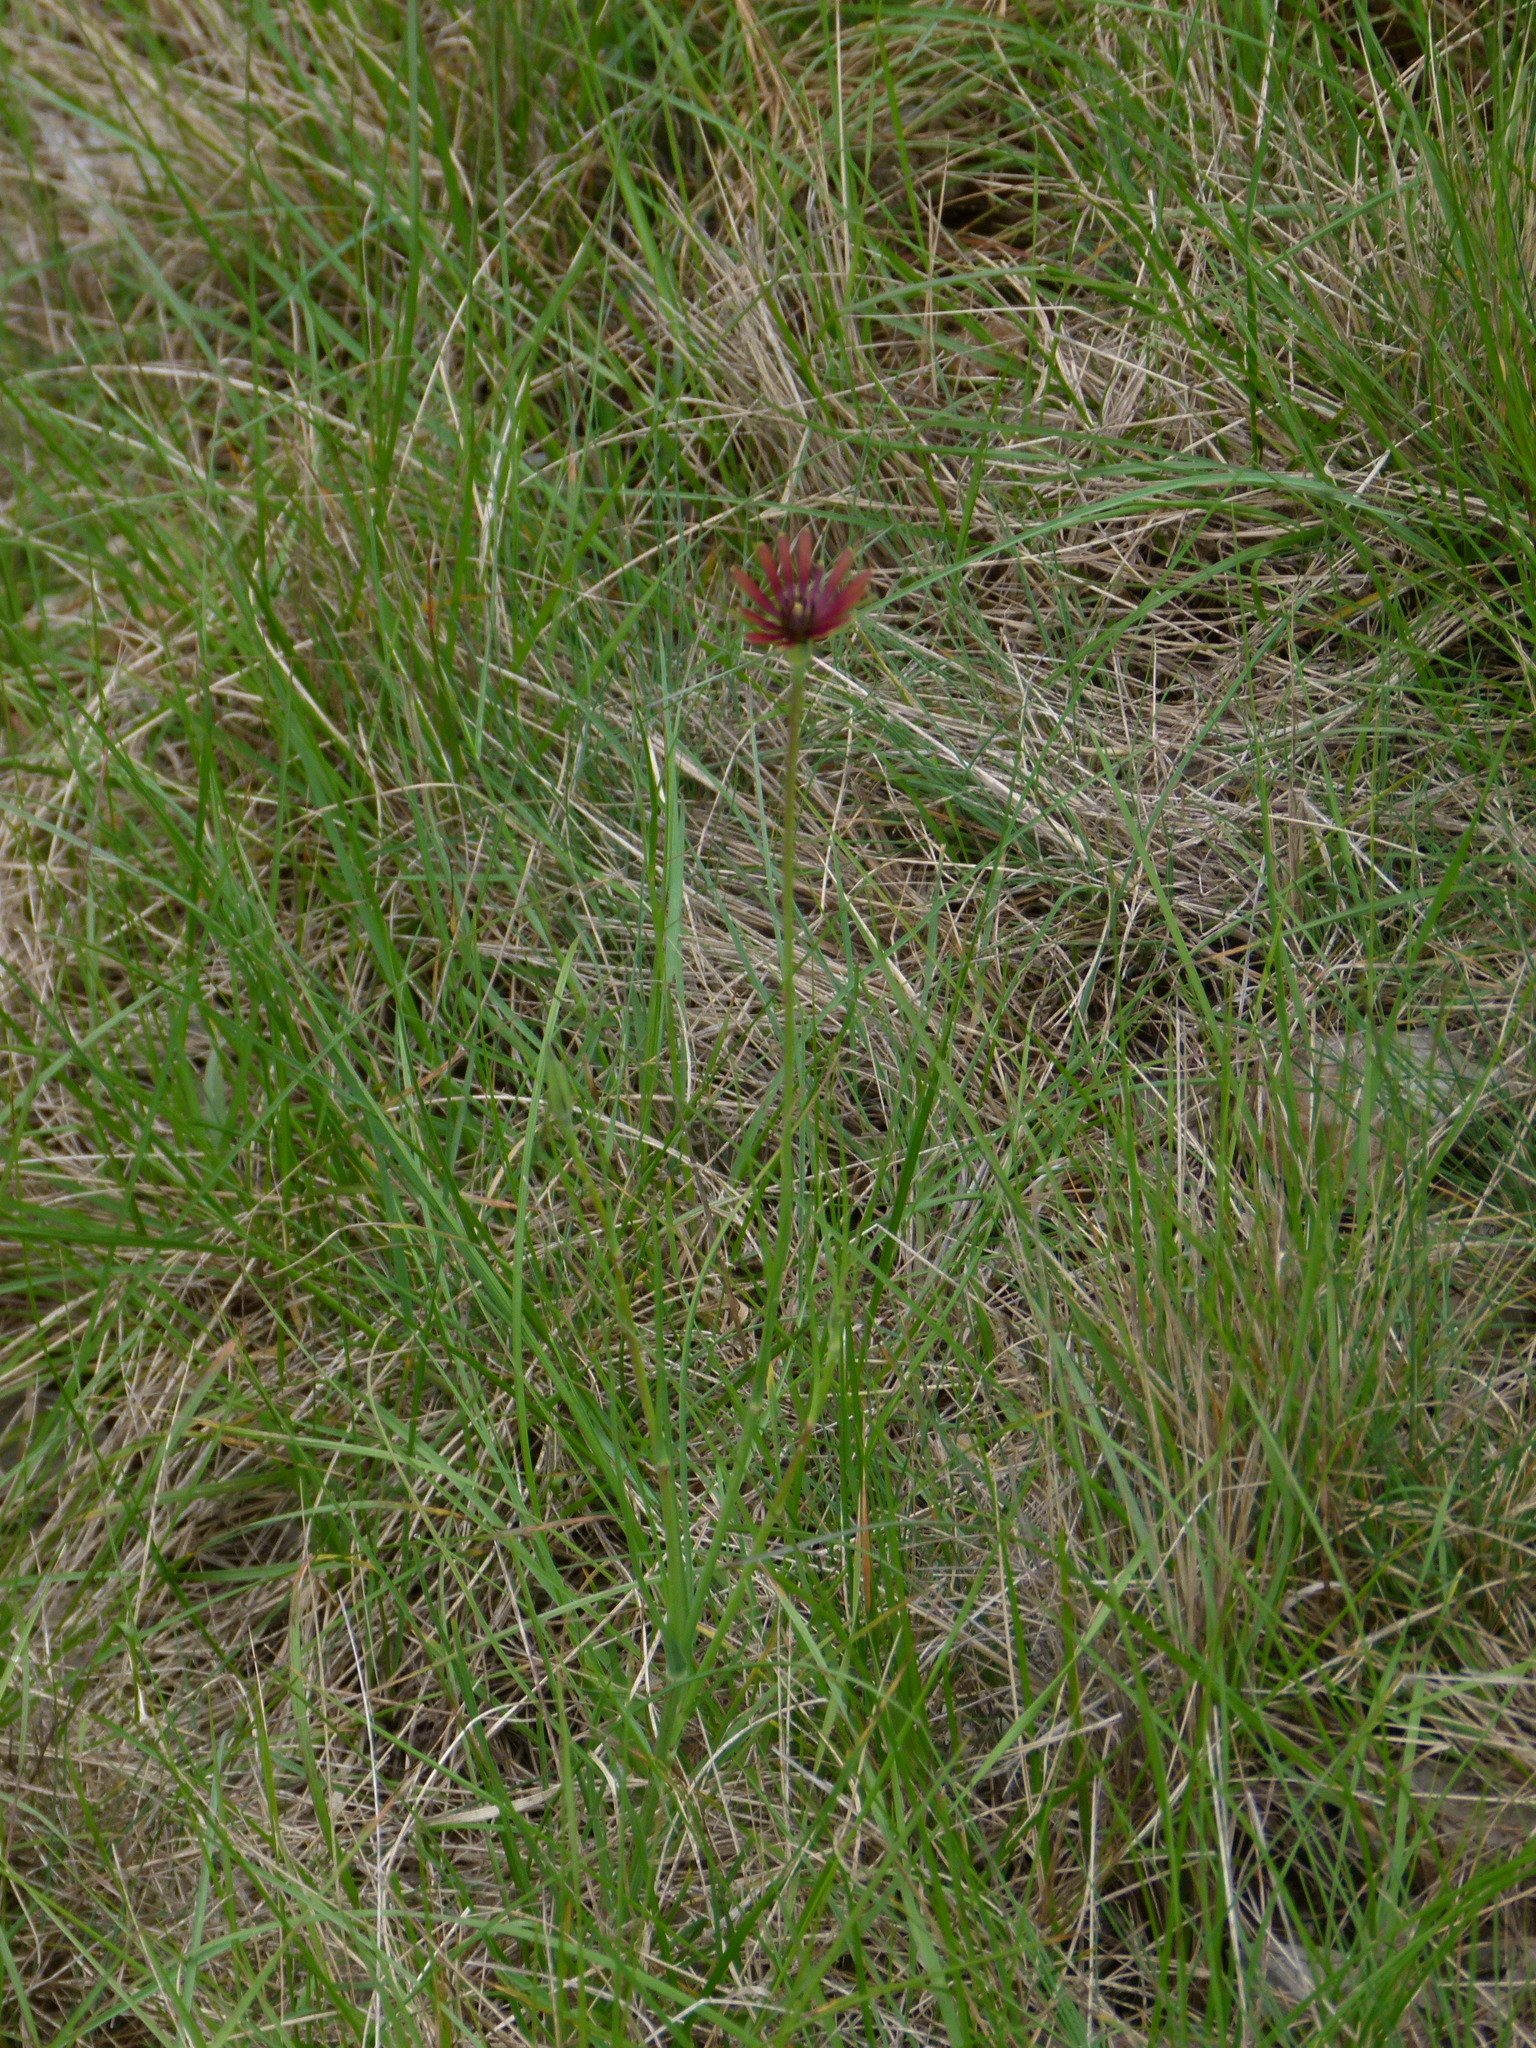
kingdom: Plantae
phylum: Tracheophyta
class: Magnoliopsida
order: Asterales
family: Asteraceae
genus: Tragopogon
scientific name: Tragopogon crocifolius
